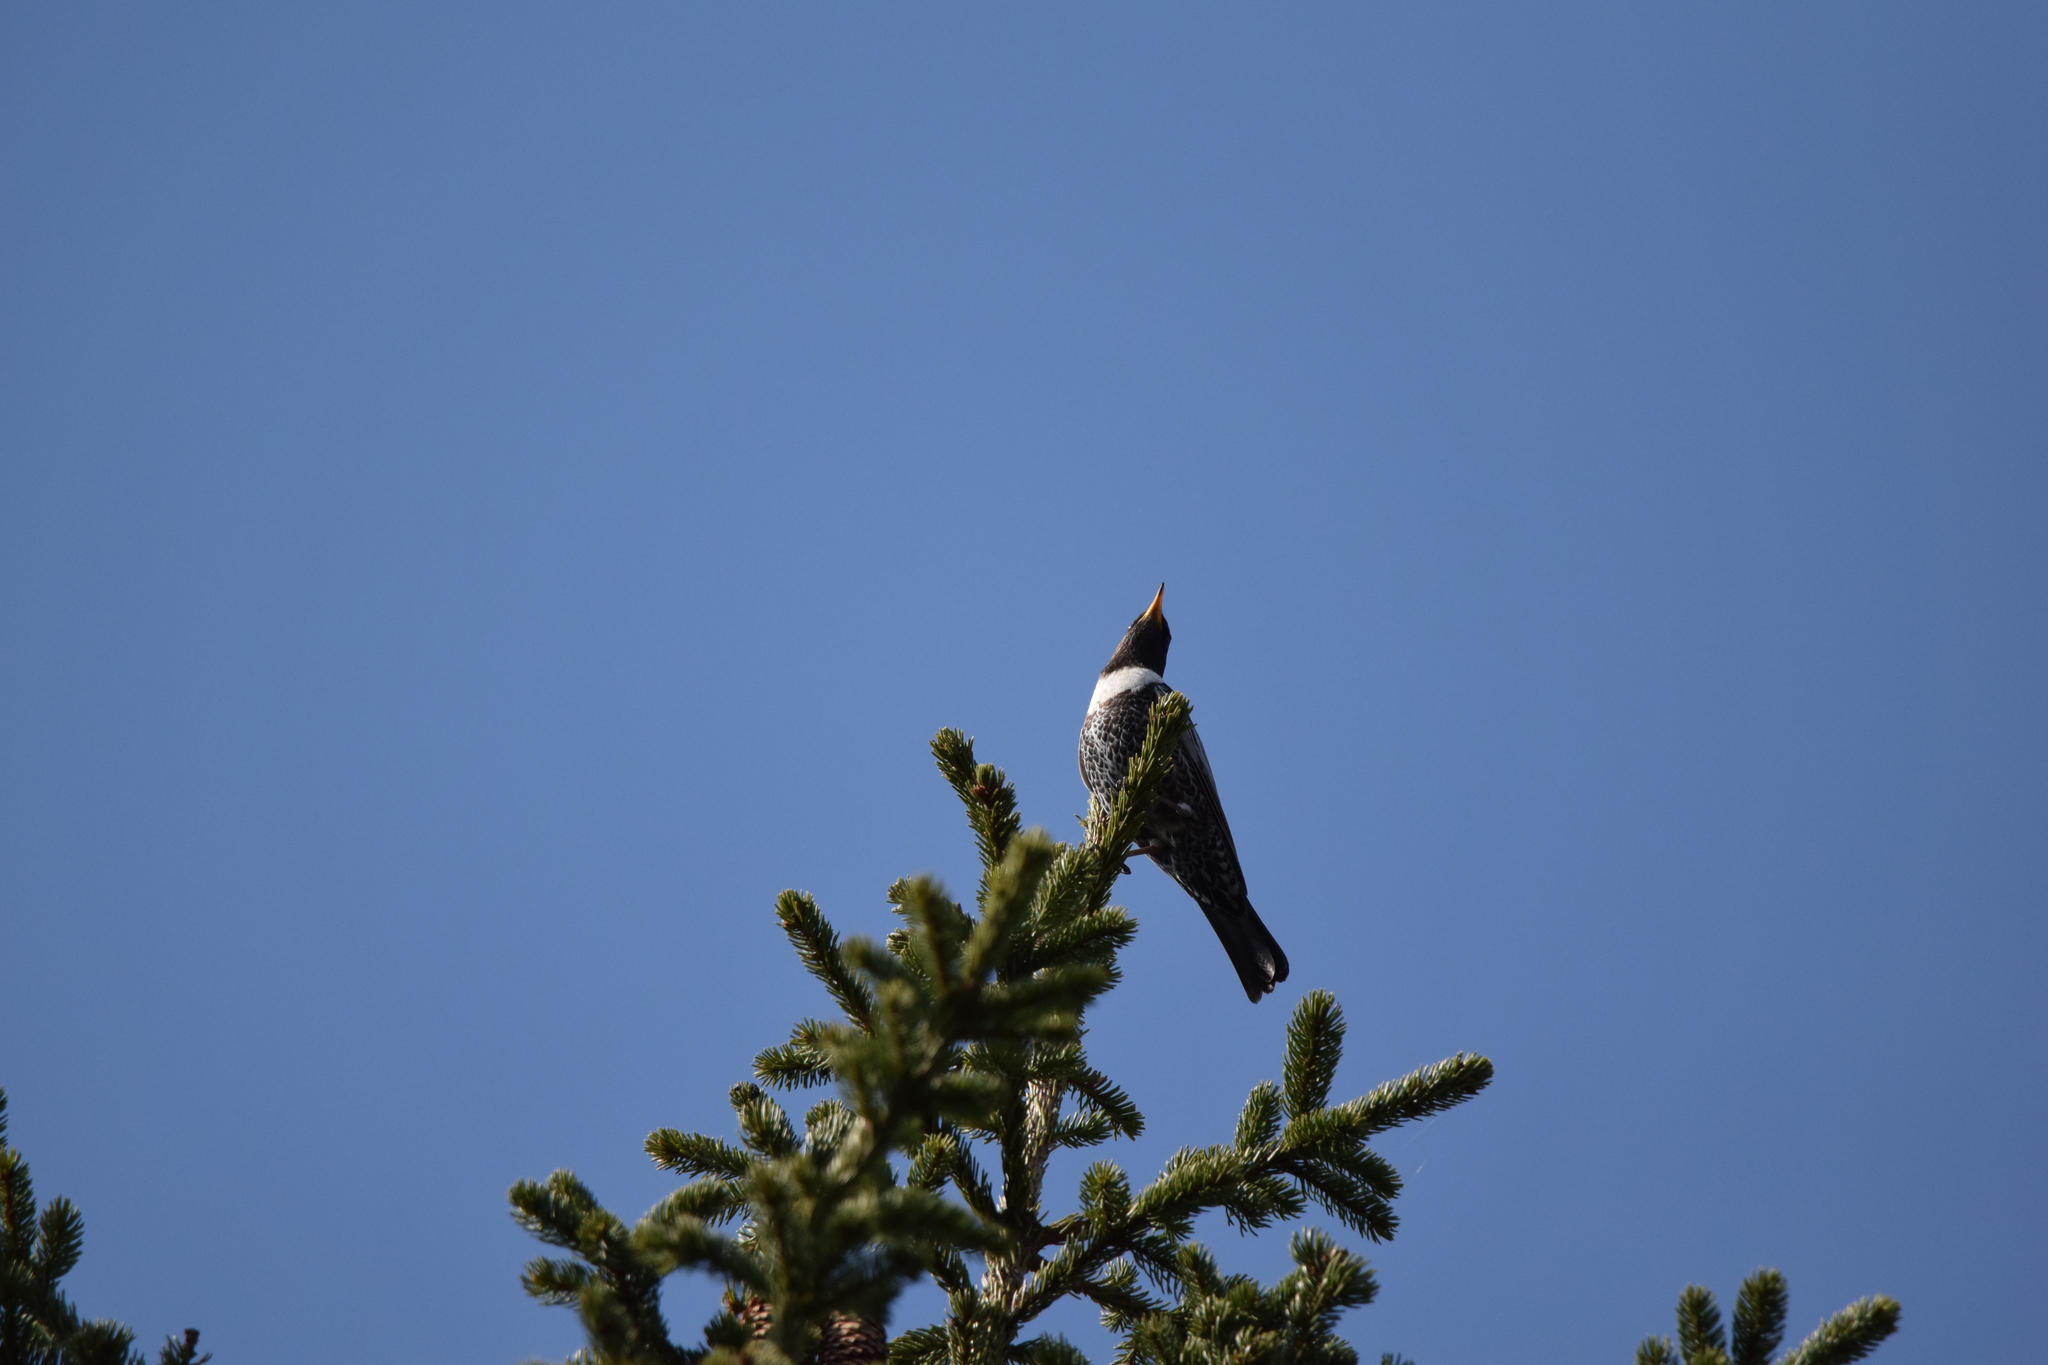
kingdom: Animalia
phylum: Chordata
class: Aves
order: Passeriformes
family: Turdidae
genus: Turdus
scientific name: Turdus torquatus
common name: Ring ouzel
